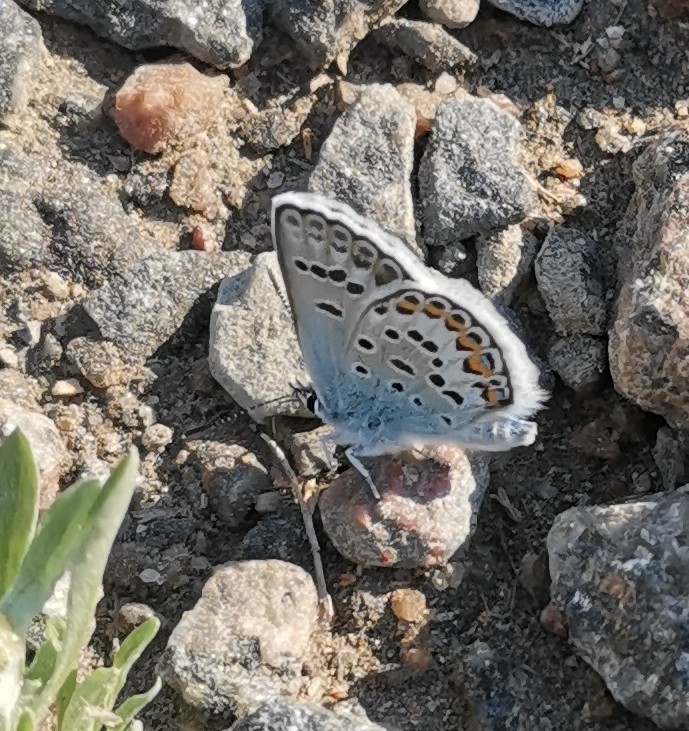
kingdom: Animalia
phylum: Arthropoda
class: Insecta
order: Lepidoptera
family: Lycaenidae
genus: Plebejus
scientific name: Plebejus argus
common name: Silver-studded blue
